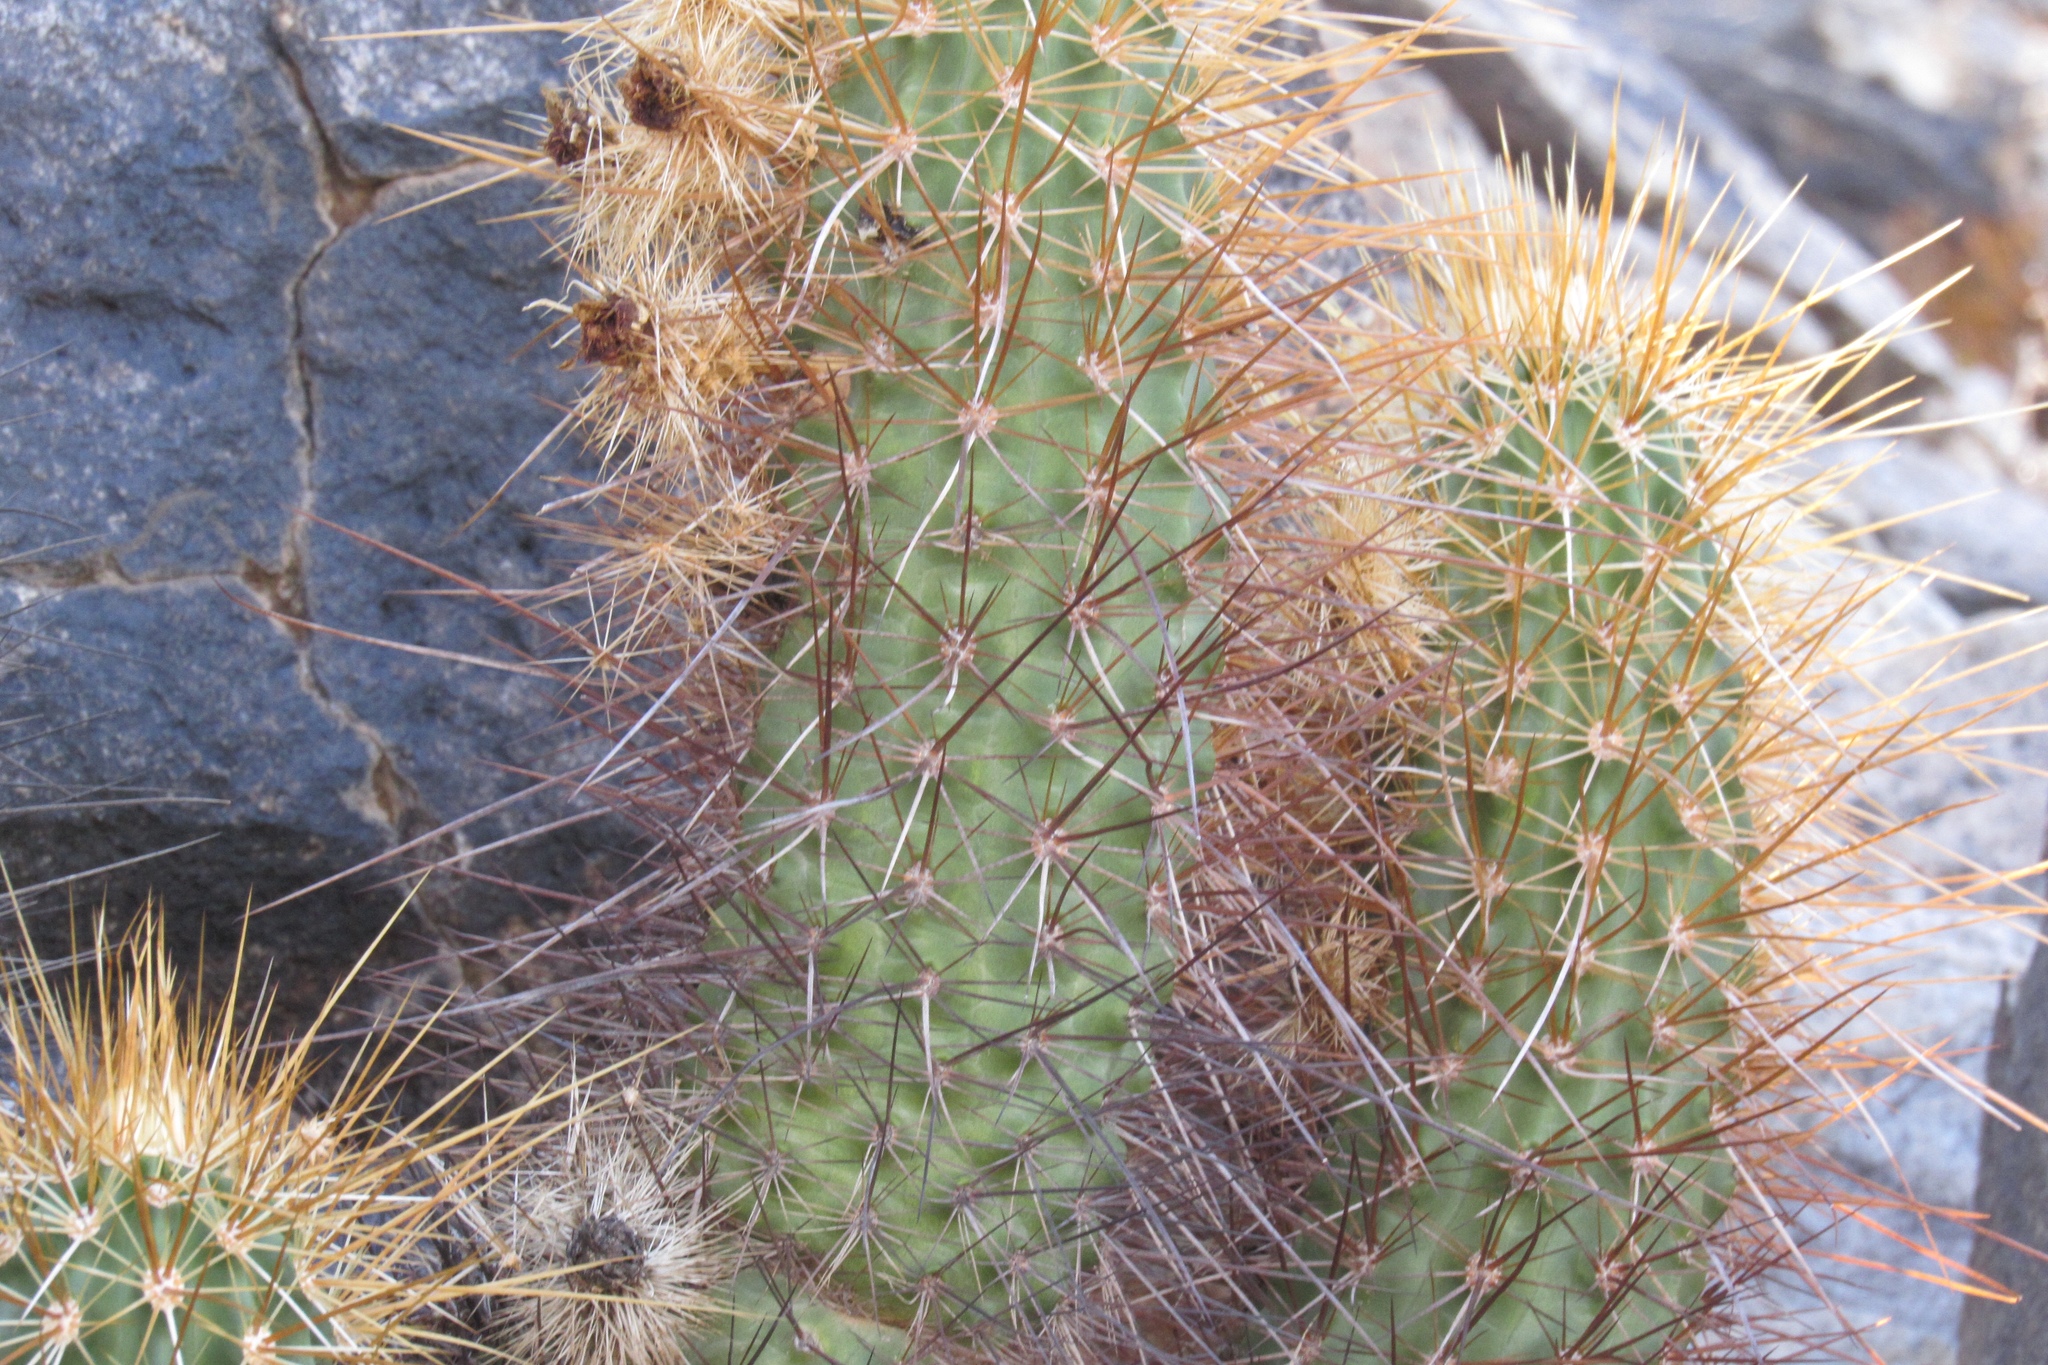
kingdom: Plantae
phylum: Tracheophyta
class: Magnoliopsida
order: Caryophyllales
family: Cactaceae
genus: Echinocereus
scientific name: Echinocereus engelmannii
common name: Engelmann's hedgehog cactus
